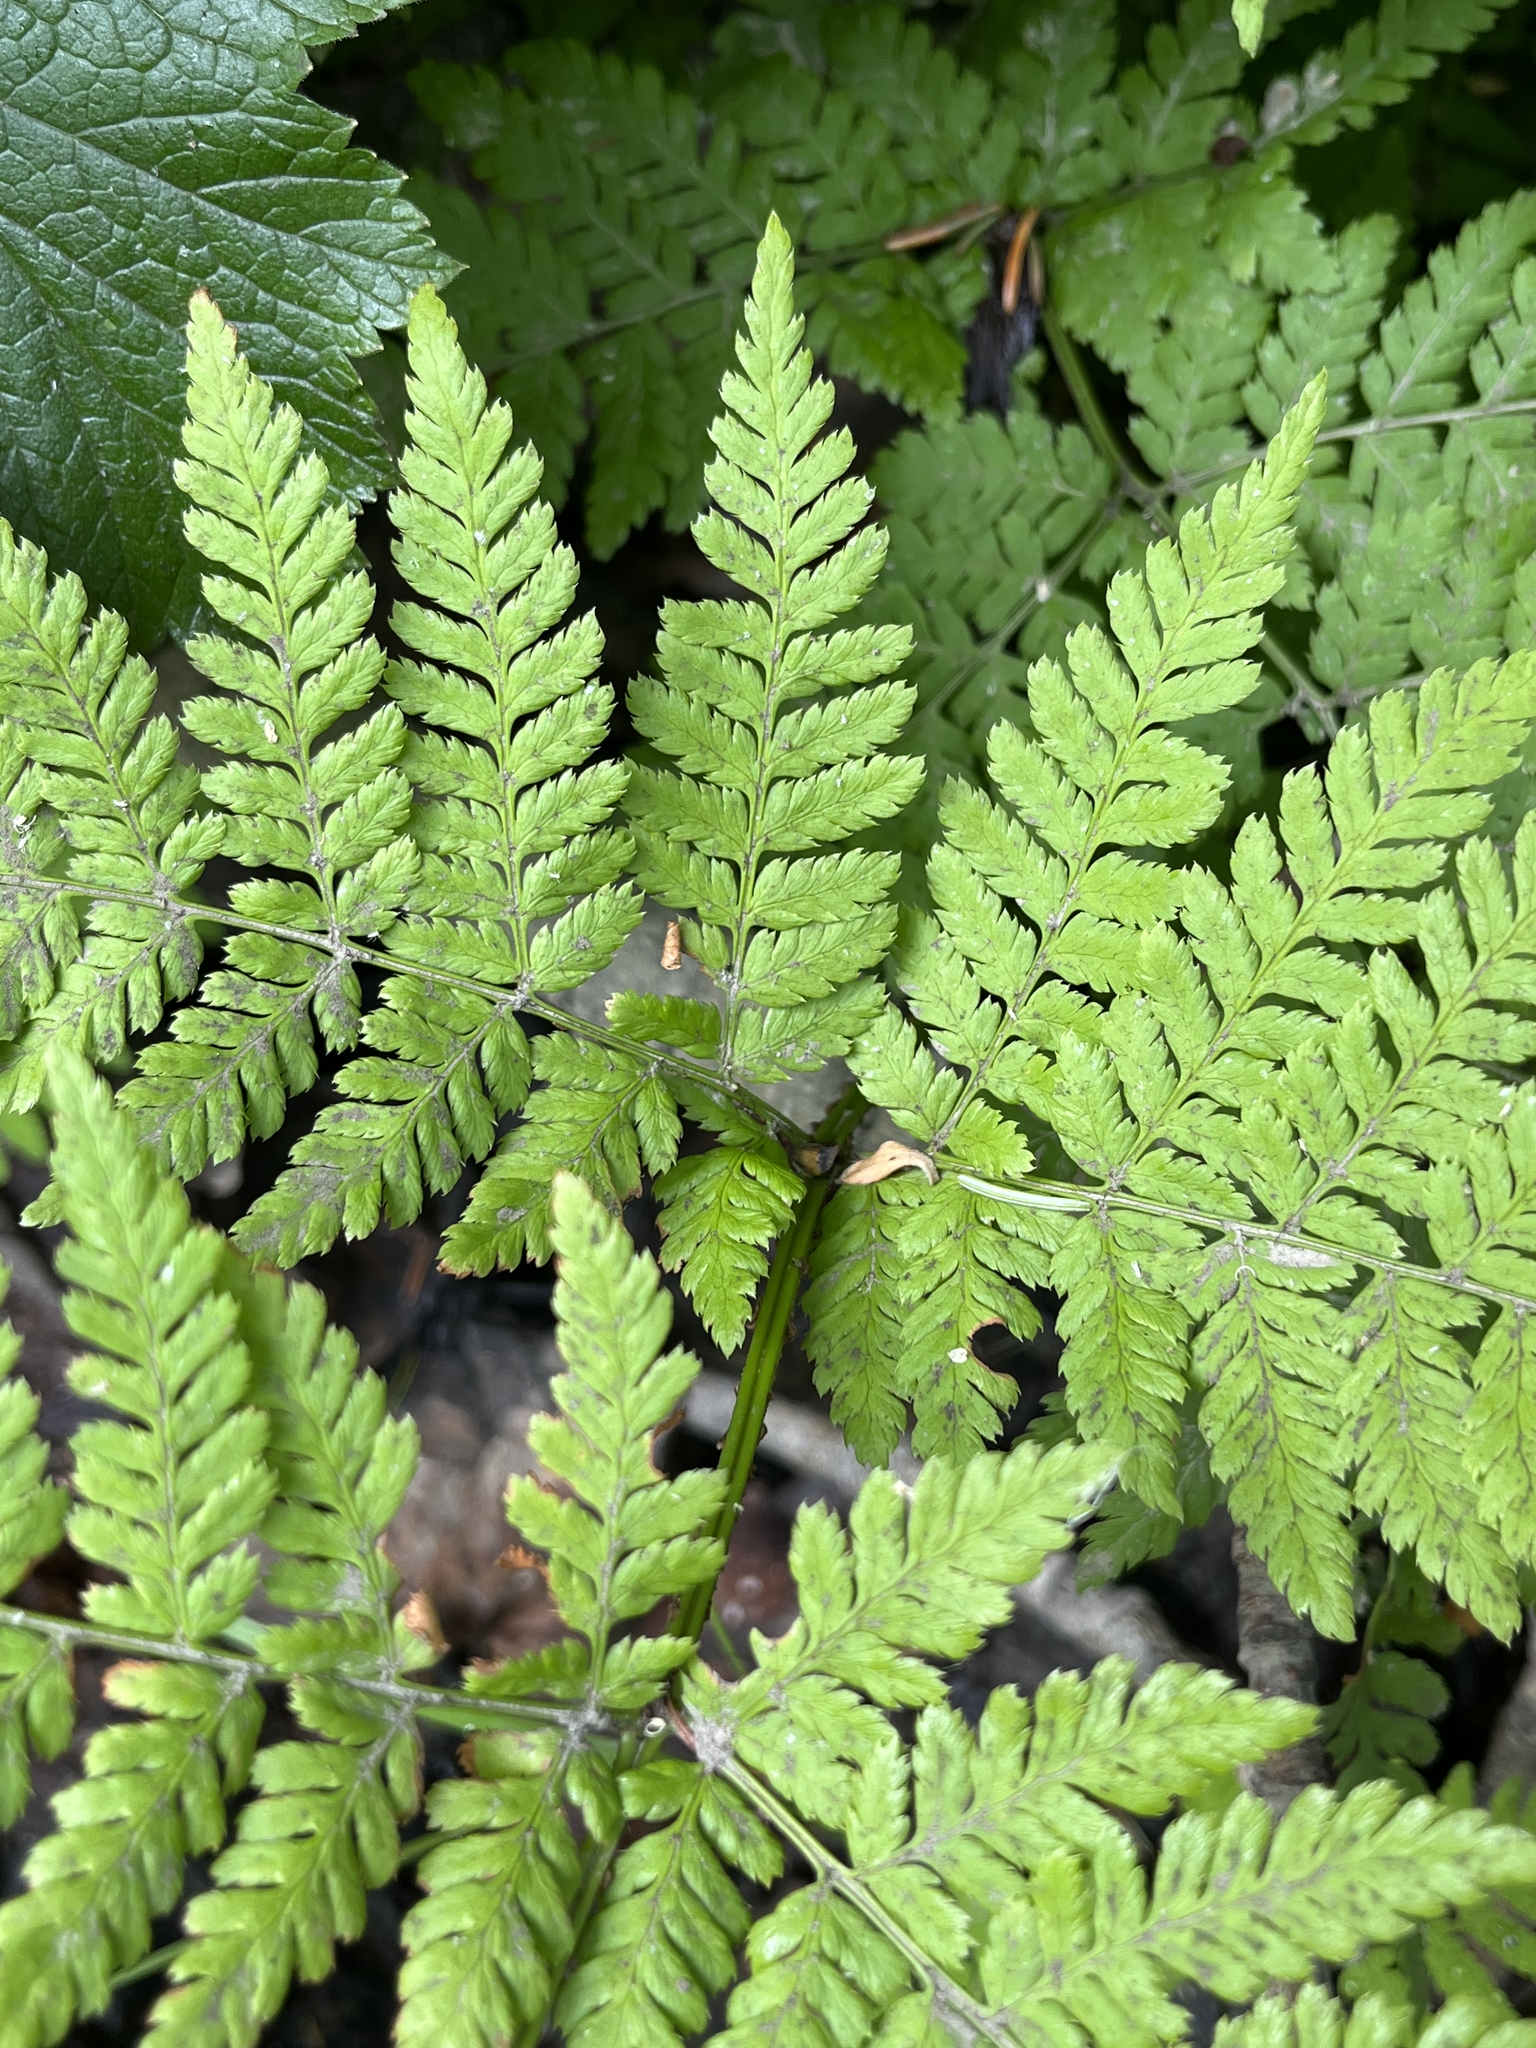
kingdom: Plantae
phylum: Tracheophyta
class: Polypodiopsida
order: Polypodiales
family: Dryopteridaceae
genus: Dryopteris
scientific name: Dryopteris expansa
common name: Northern buckler fern
